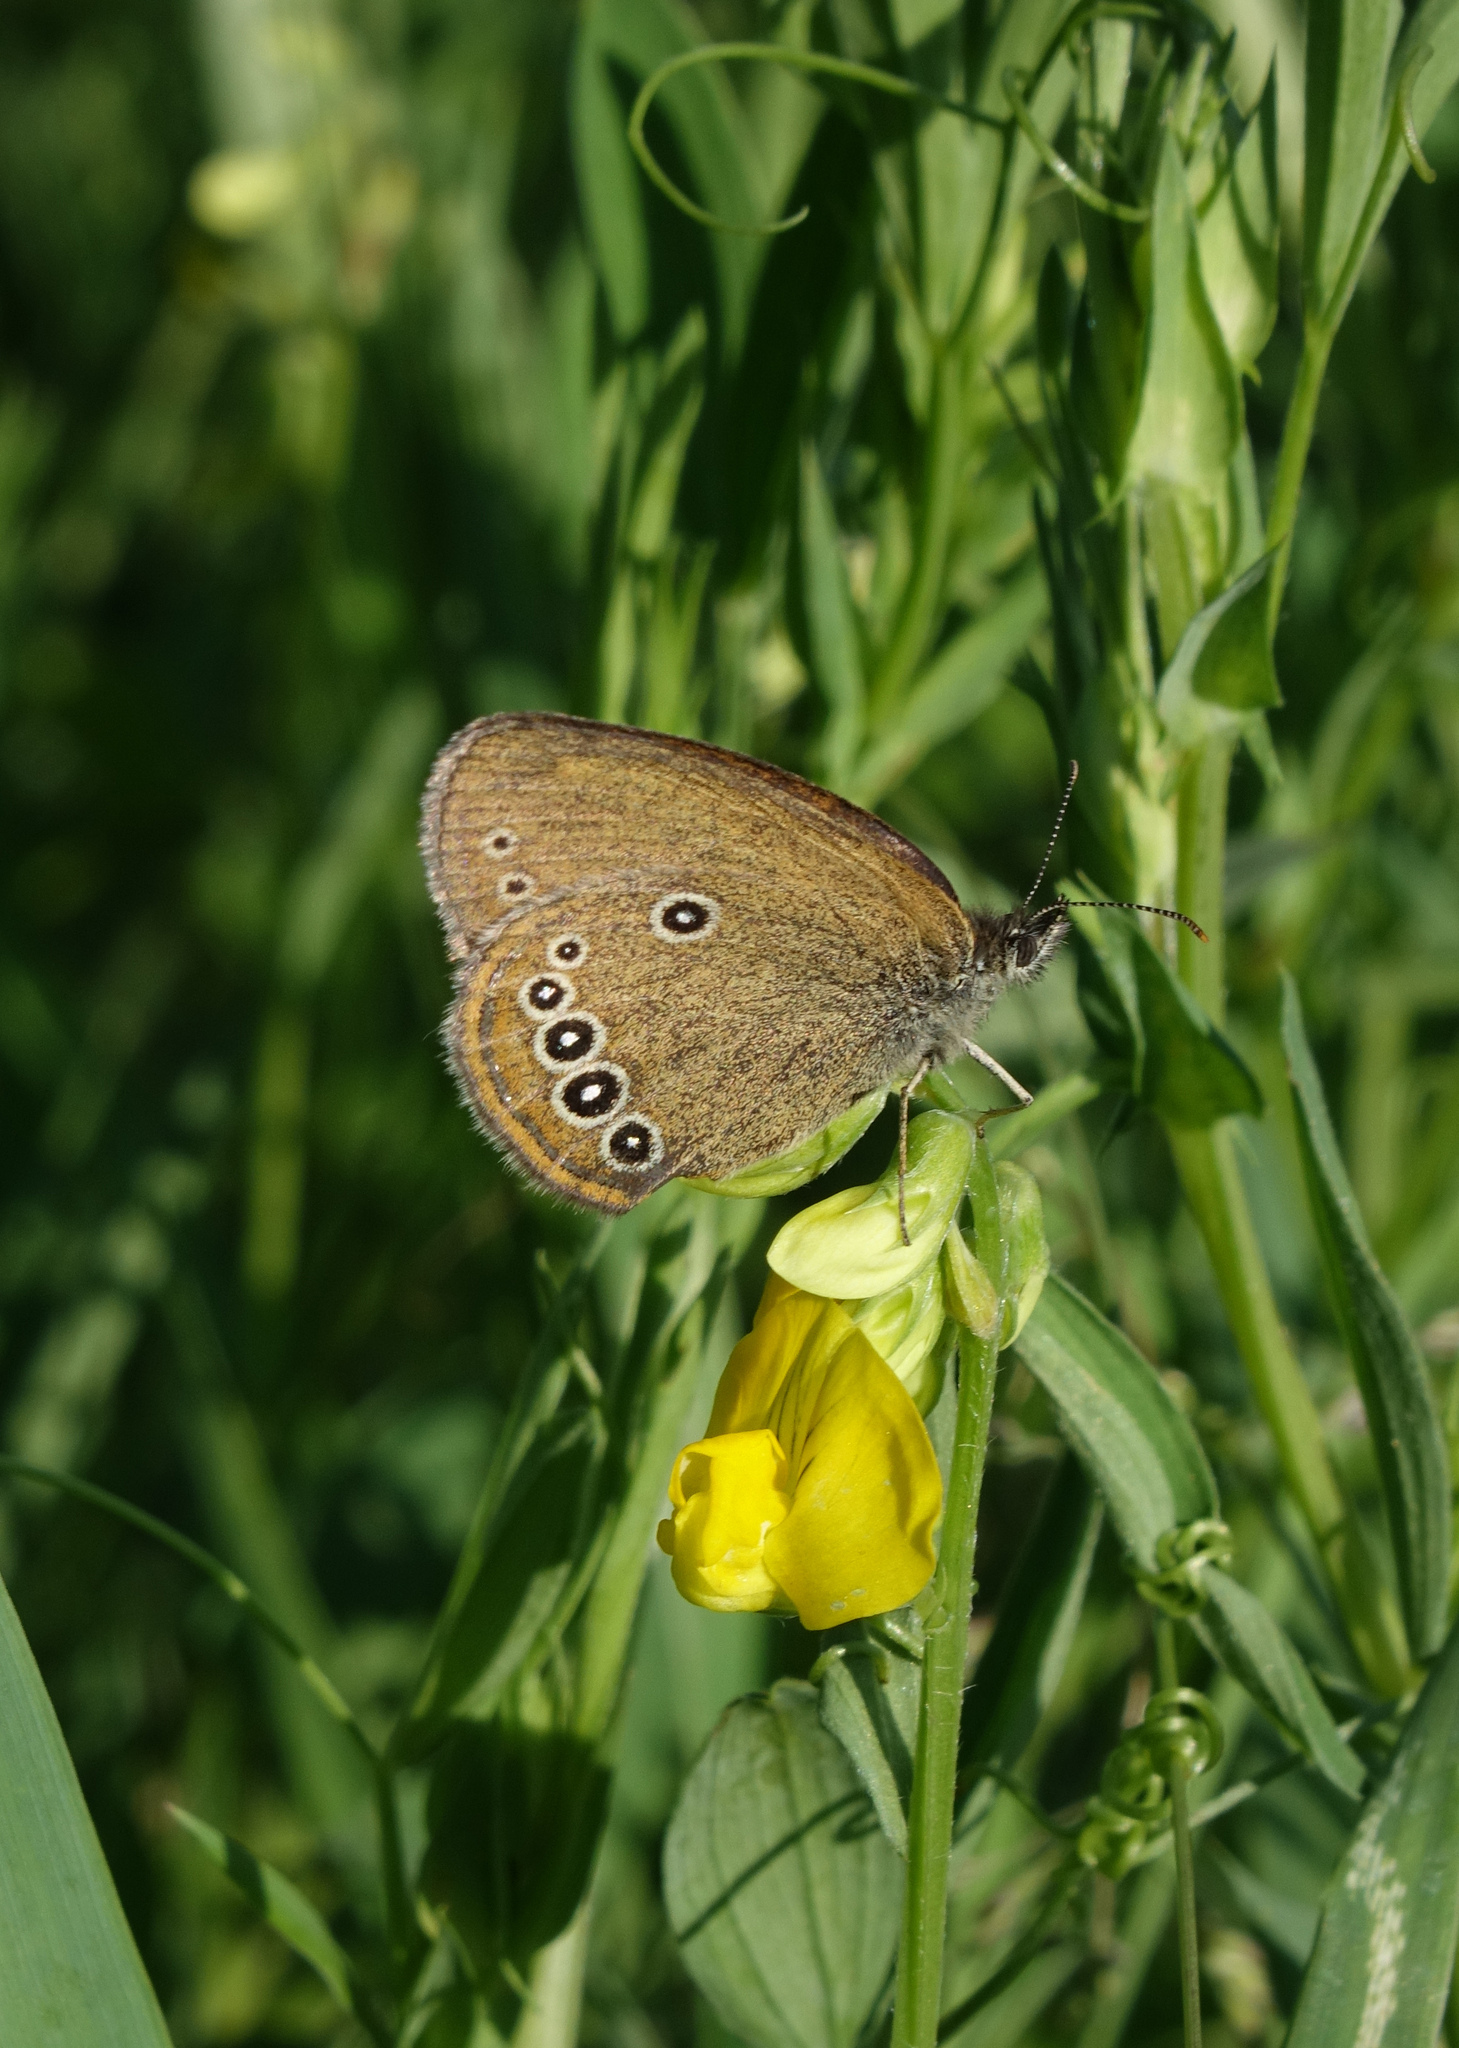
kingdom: Animalia
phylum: Arthropoda
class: Insecta
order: Lepidoptera
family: Nymphalidae
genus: Coenonympha
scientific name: Coenonympha oedippus
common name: False ringlet
